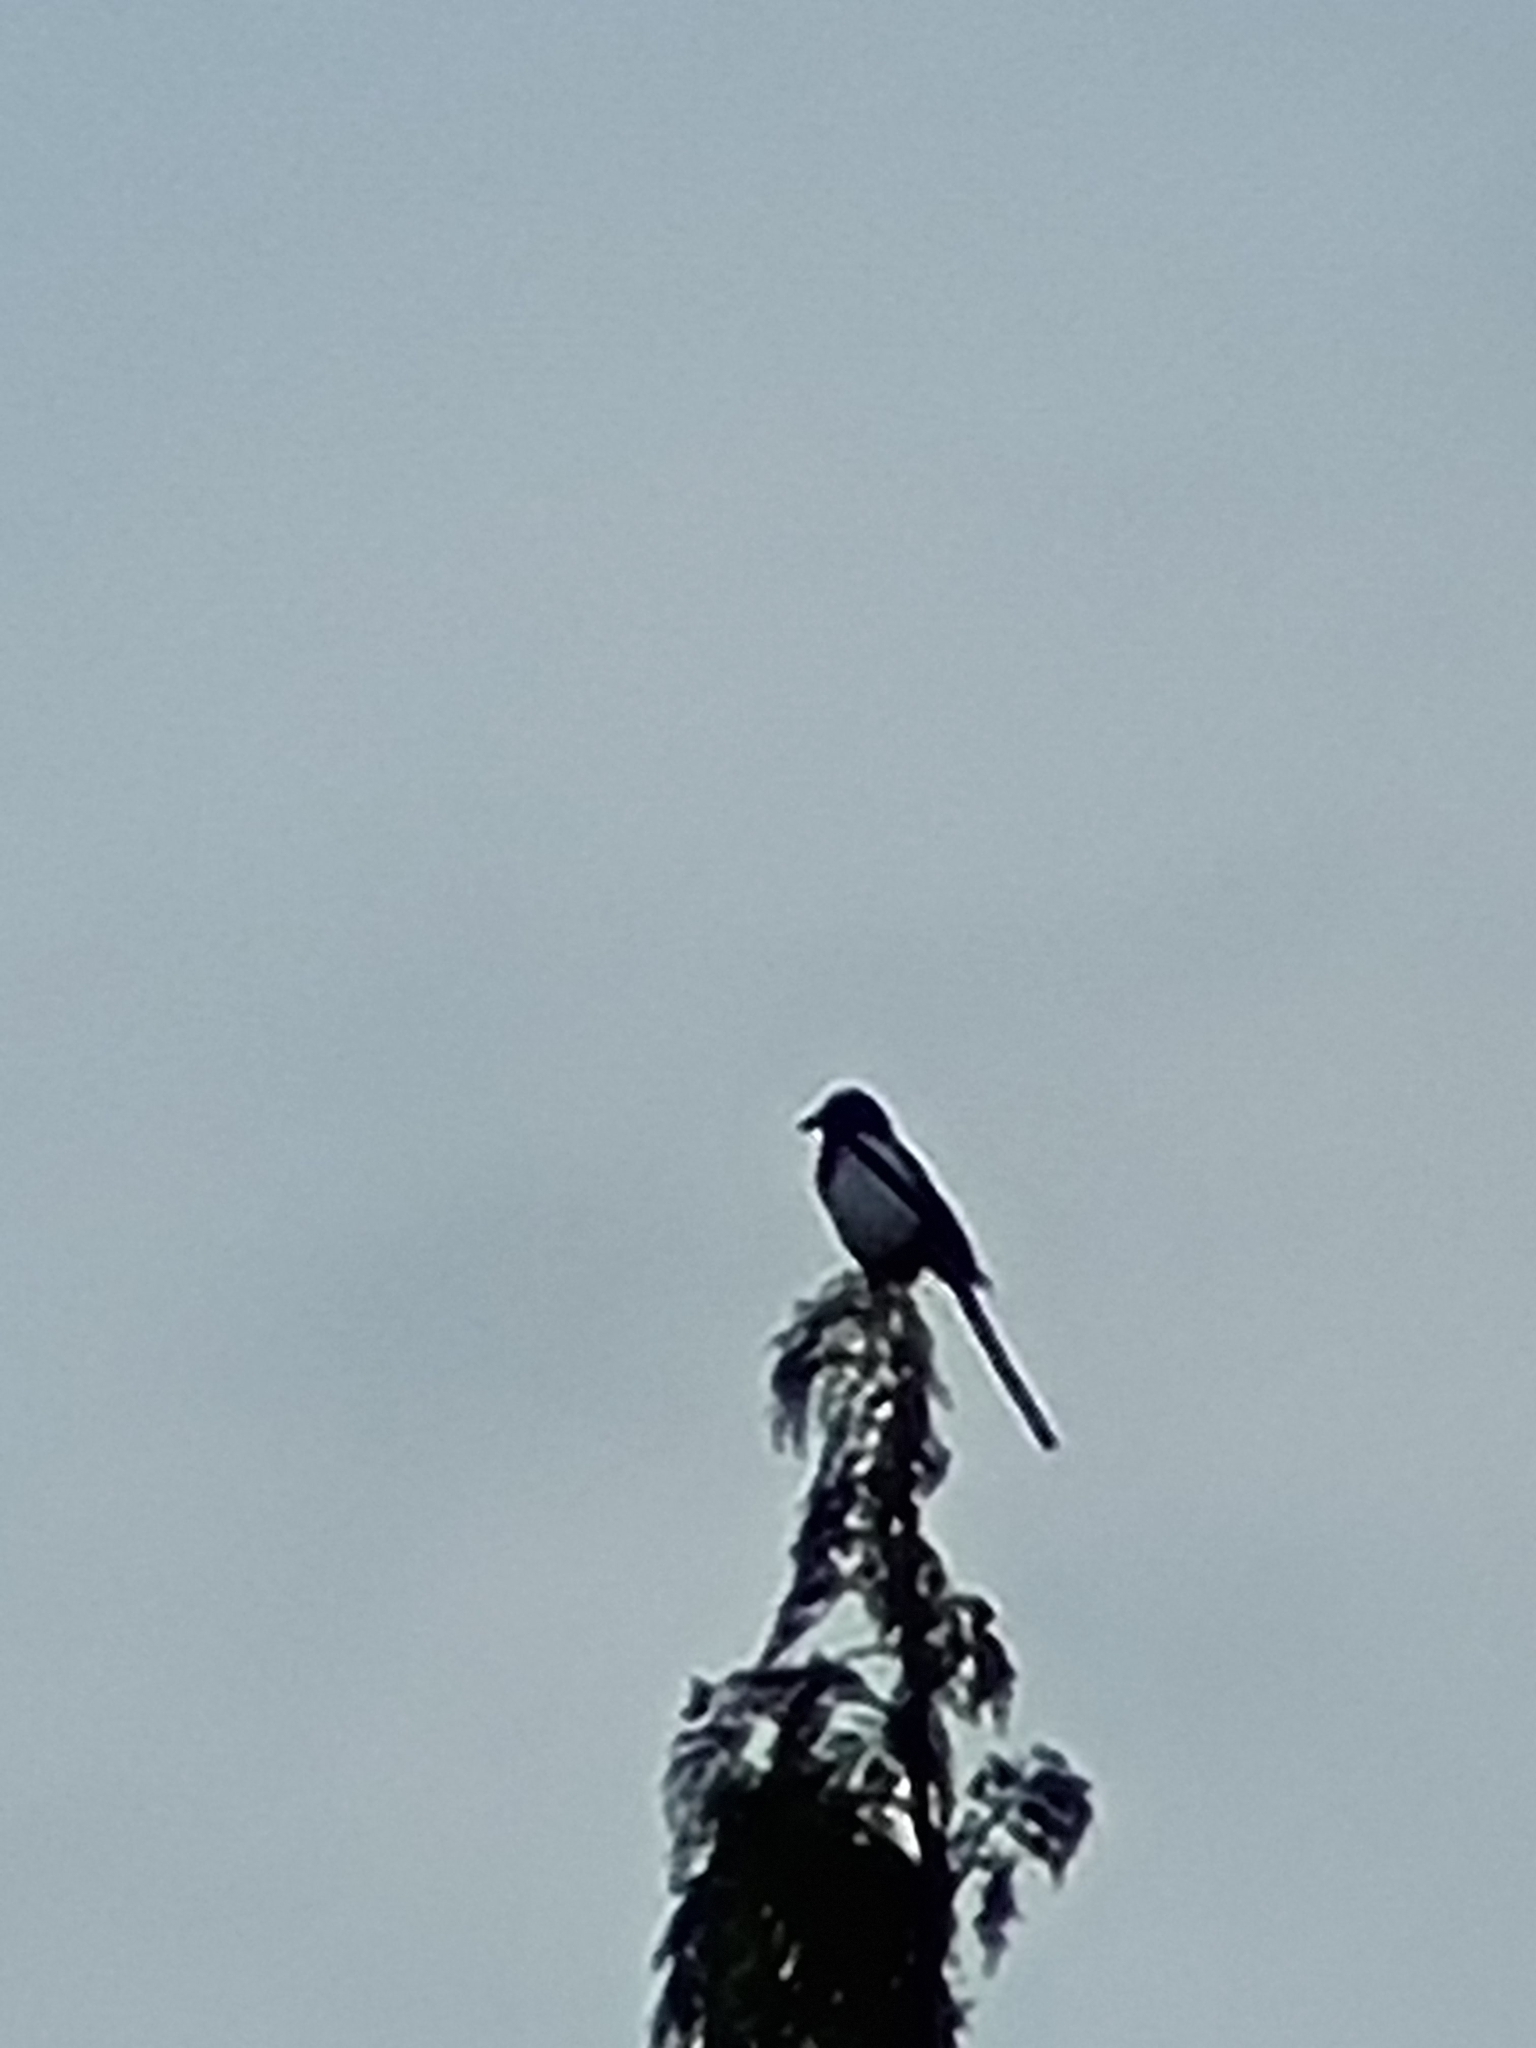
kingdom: Animalia
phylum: Chordata
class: Aves
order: Passeriformes
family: Corvidae
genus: Pica
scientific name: Pica pica
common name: Eurasian magpie
